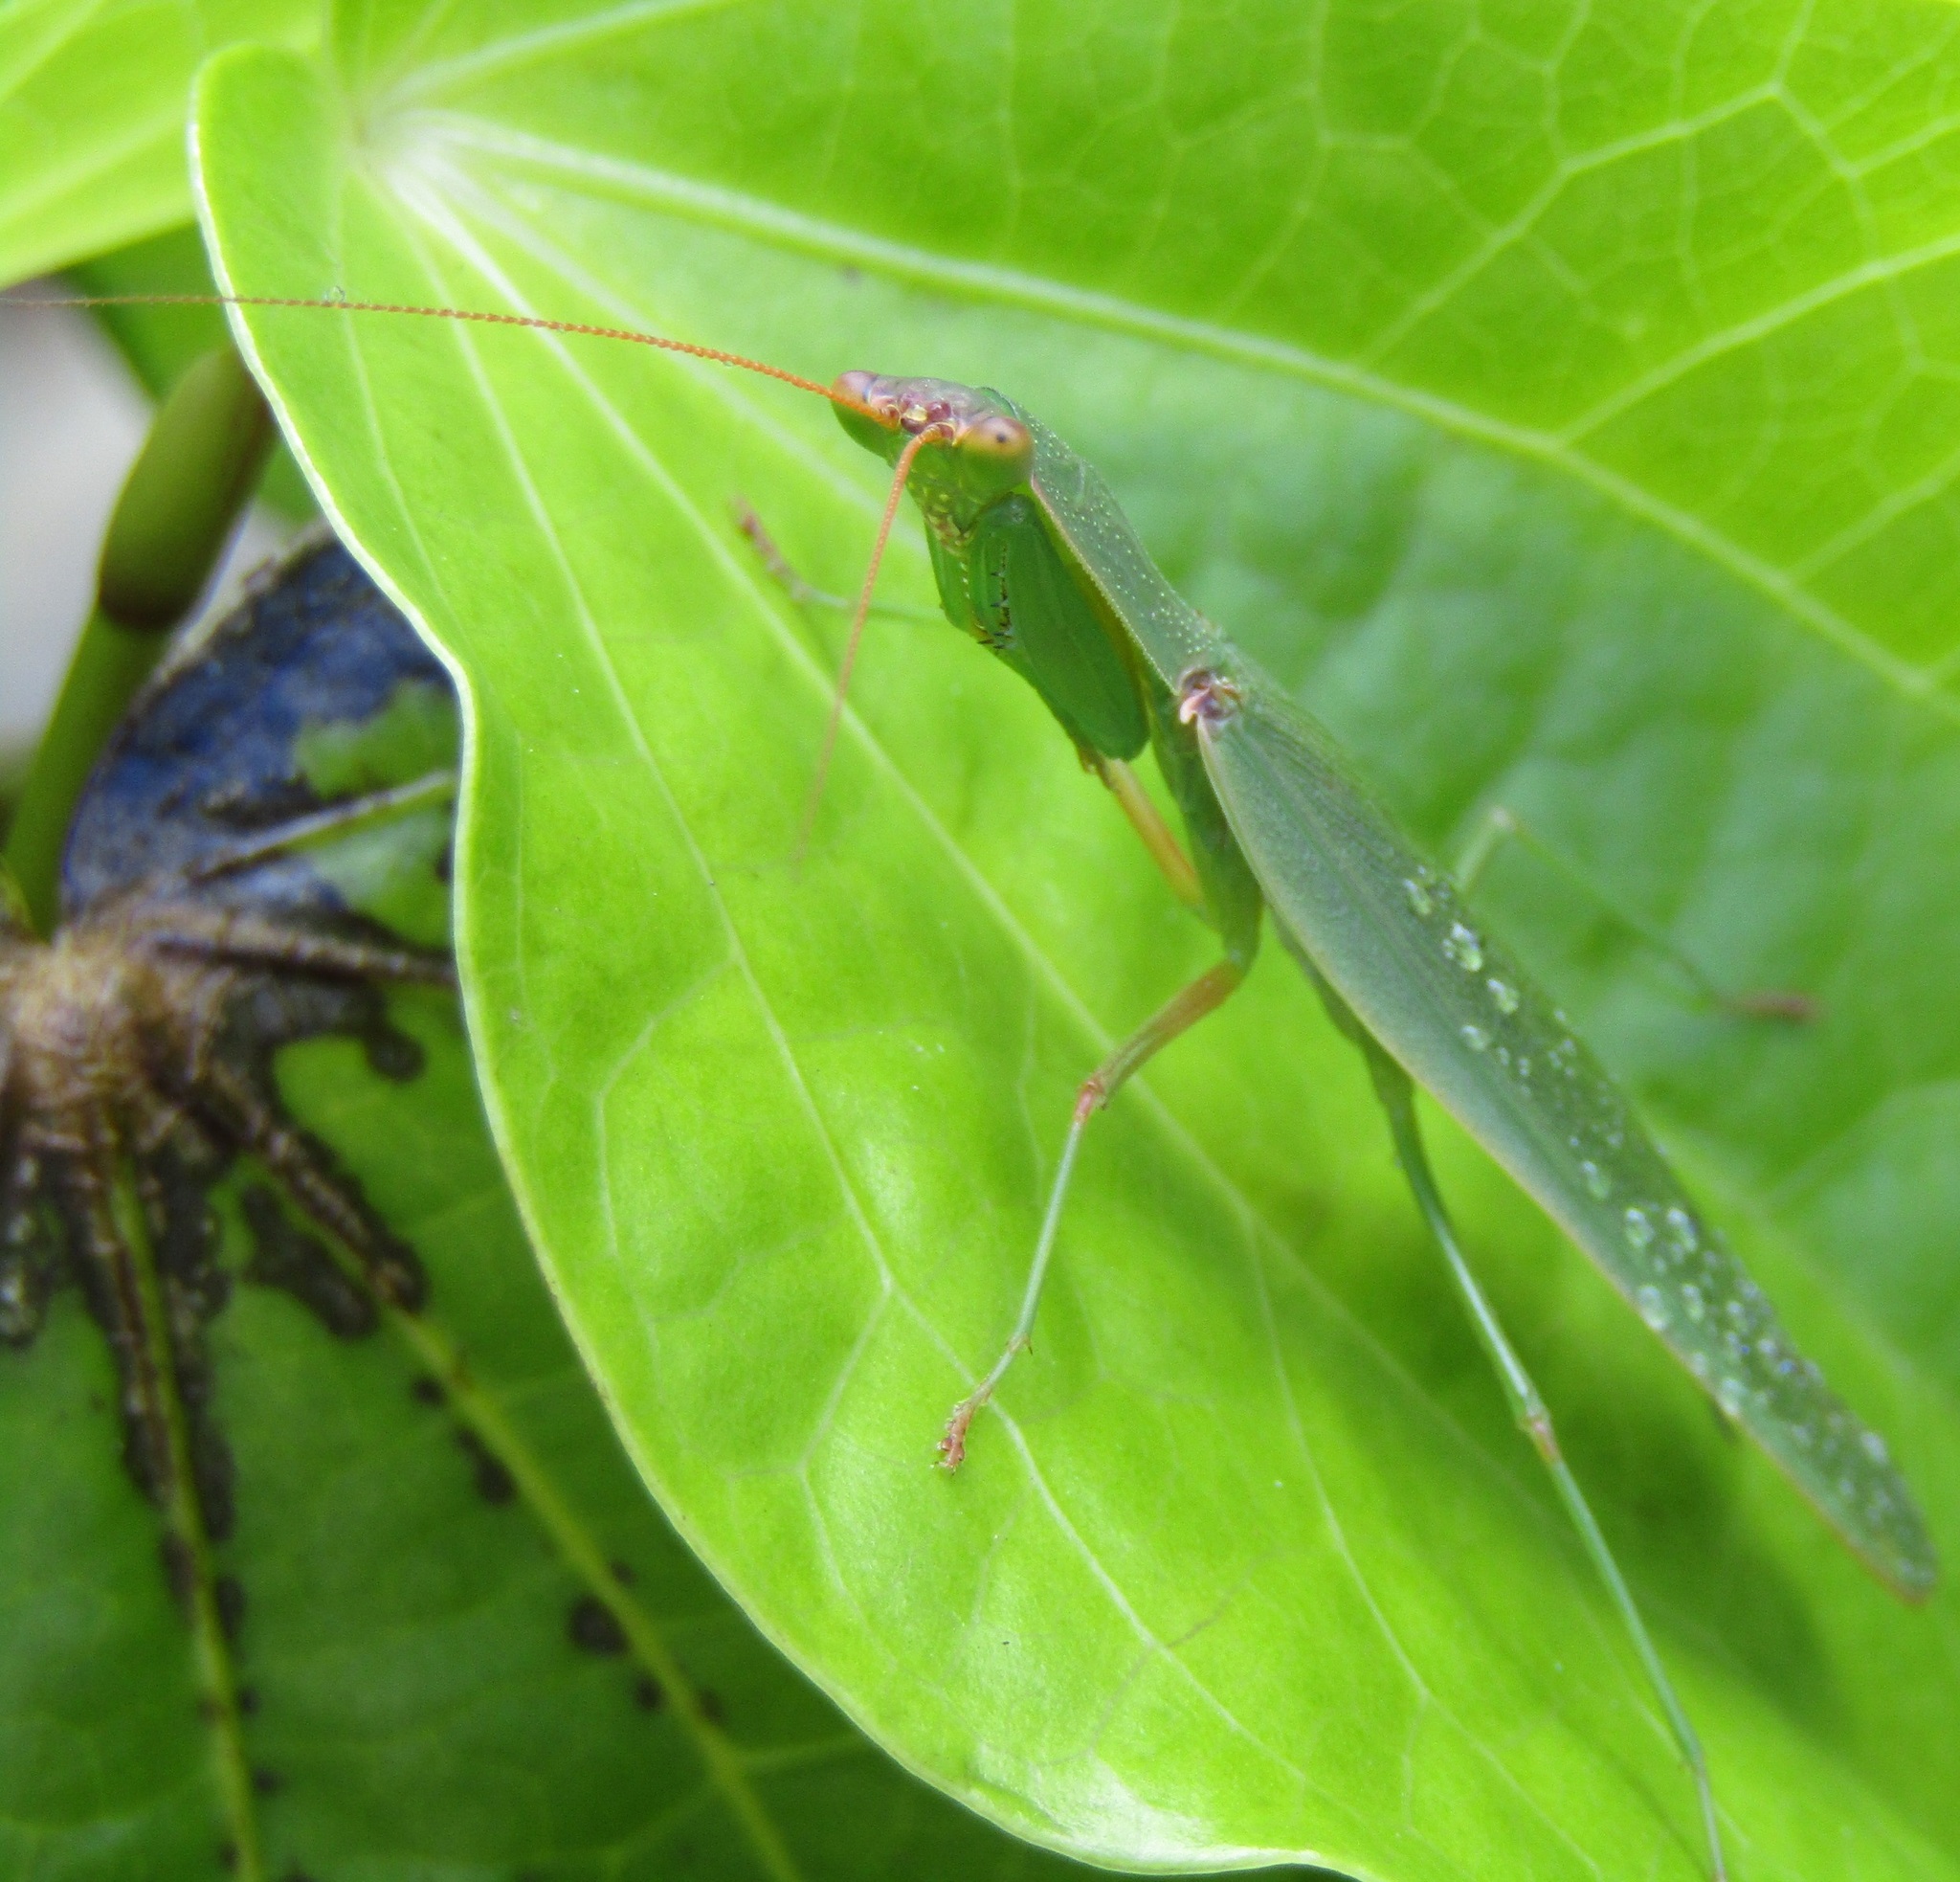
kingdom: Animalia
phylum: Arthropoda
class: Insecta
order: Mantodea
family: Mantidae
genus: Orthodera
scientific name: Orthodera novaezealandiae
